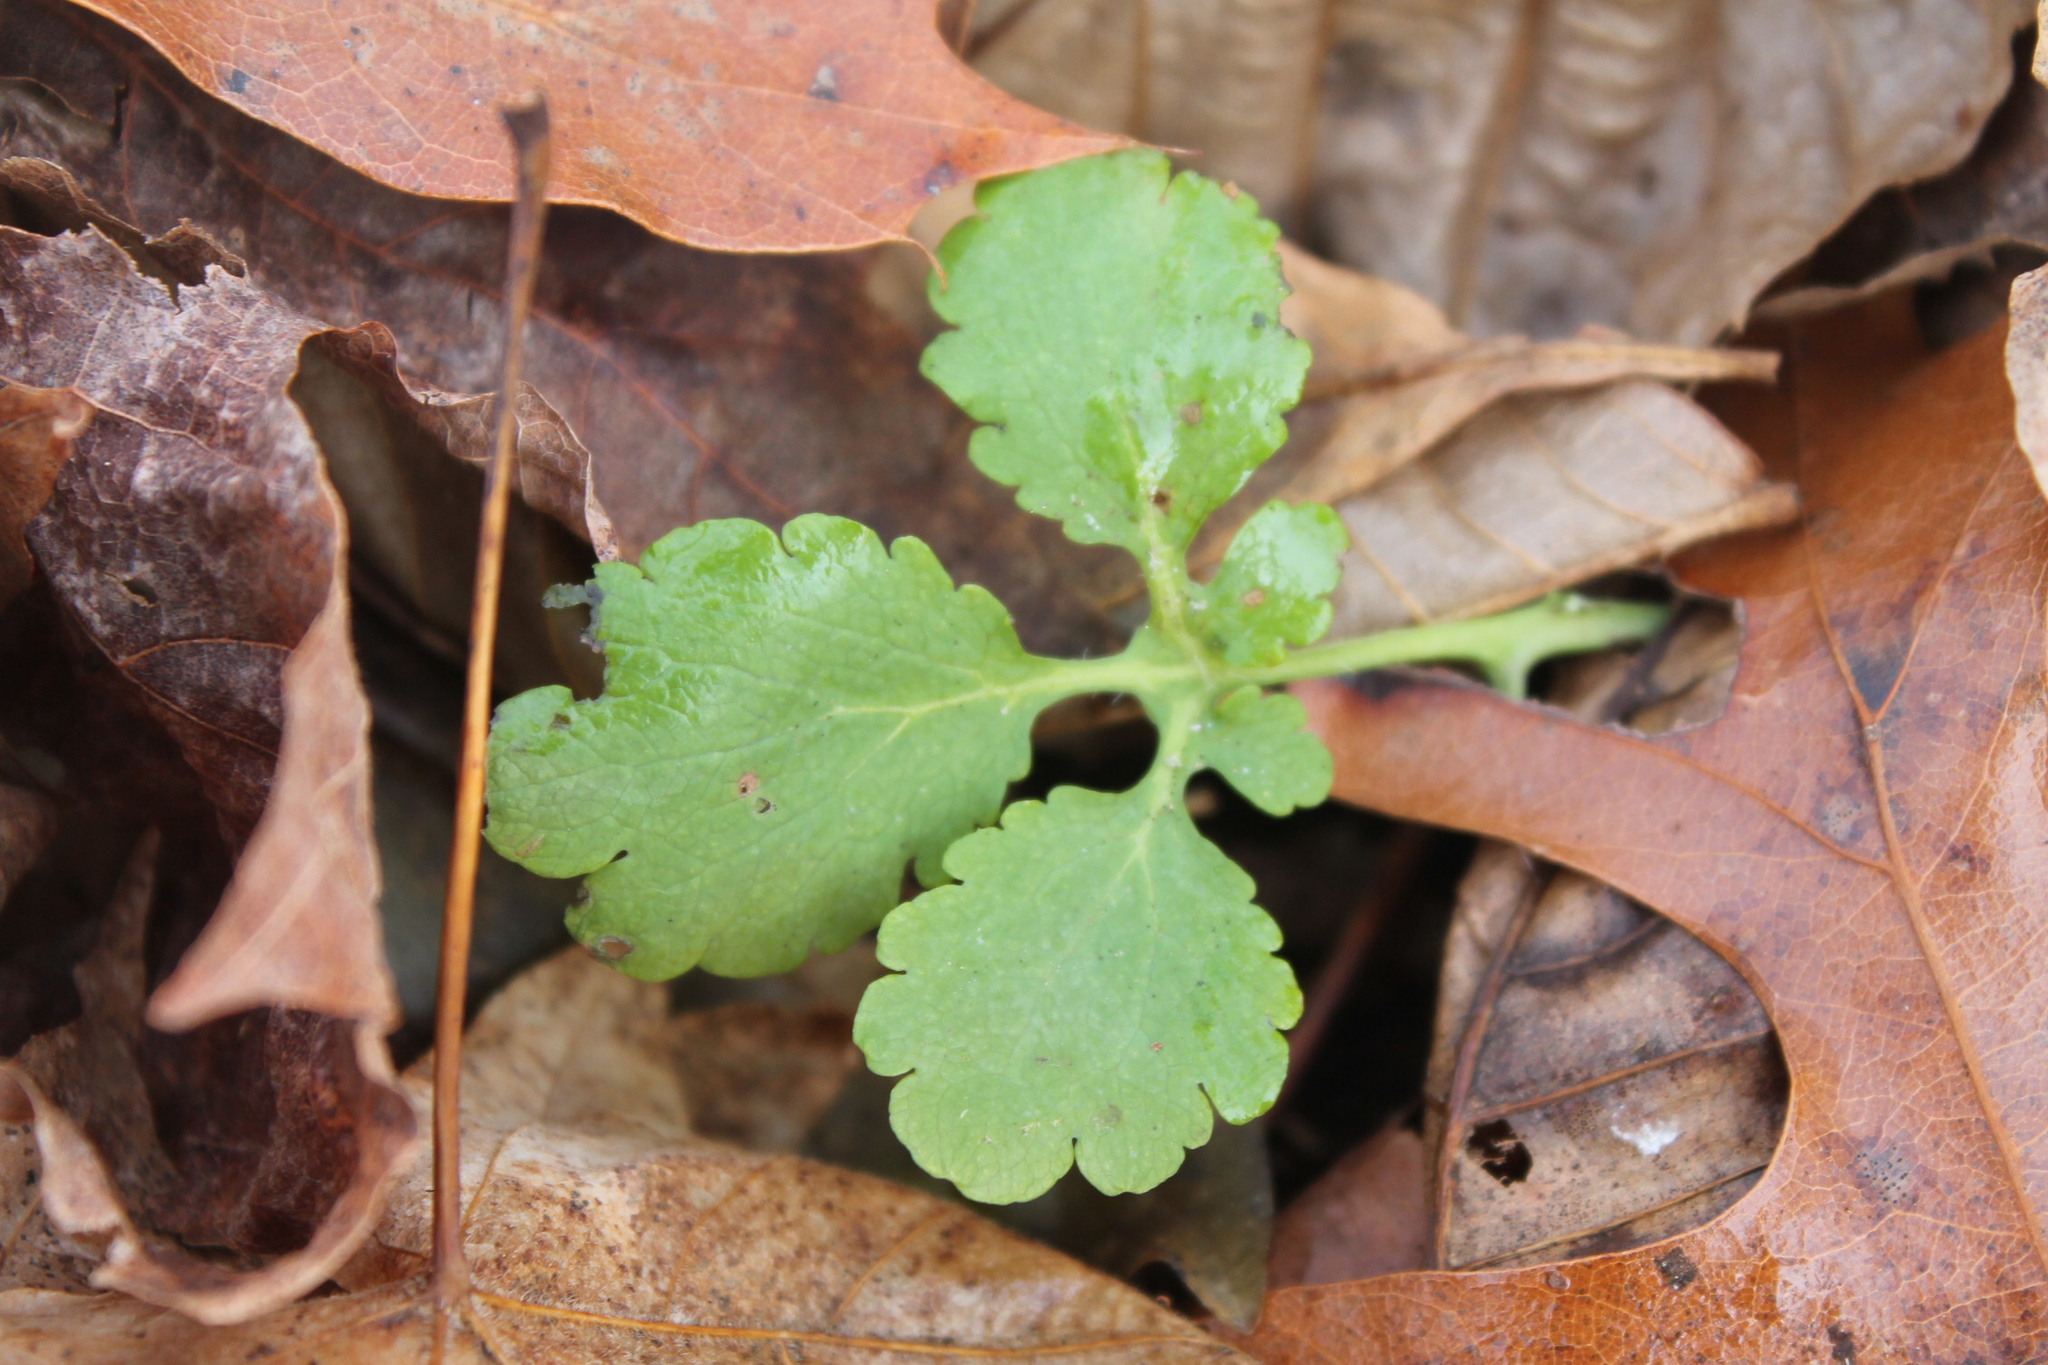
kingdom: Plantae
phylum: Tracheophyta
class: Magnoliopsida
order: Ranunculales
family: Papaveraceae
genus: Chelidonium
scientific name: Chelidonium majus
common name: Greater celandine
